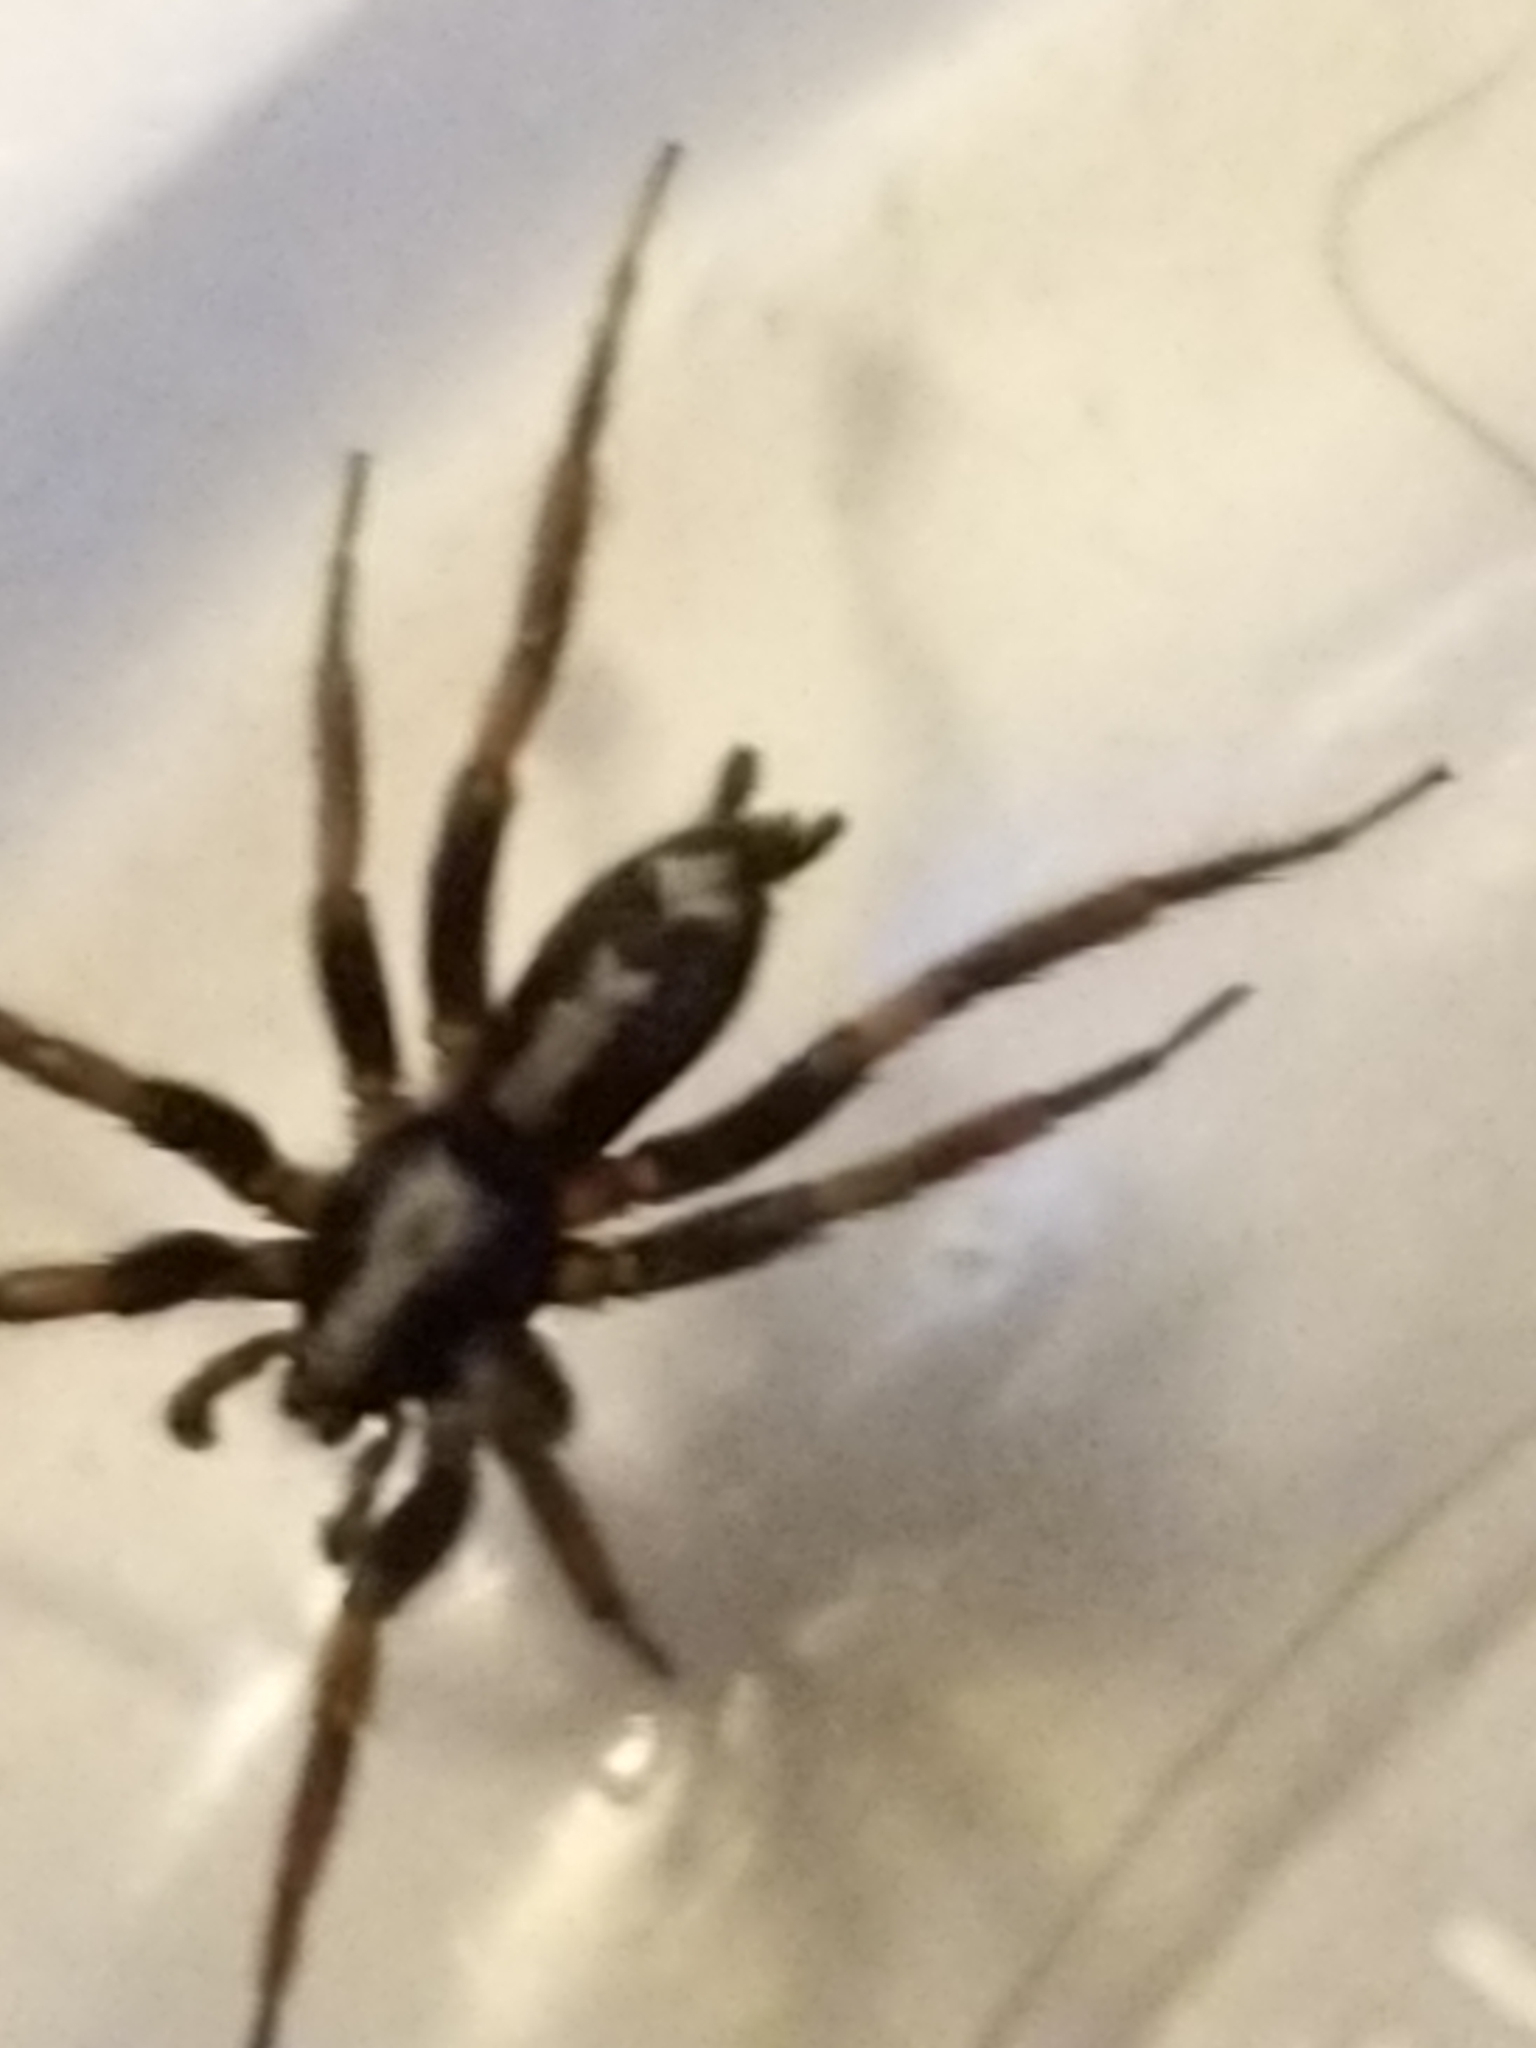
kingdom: Animalia
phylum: Arthropoda
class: Arachnida
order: Araneae
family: Gnaphosidae
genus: Herpyllus
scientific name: Herpyllus ecclesiasticus
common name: Eastern parson spider
